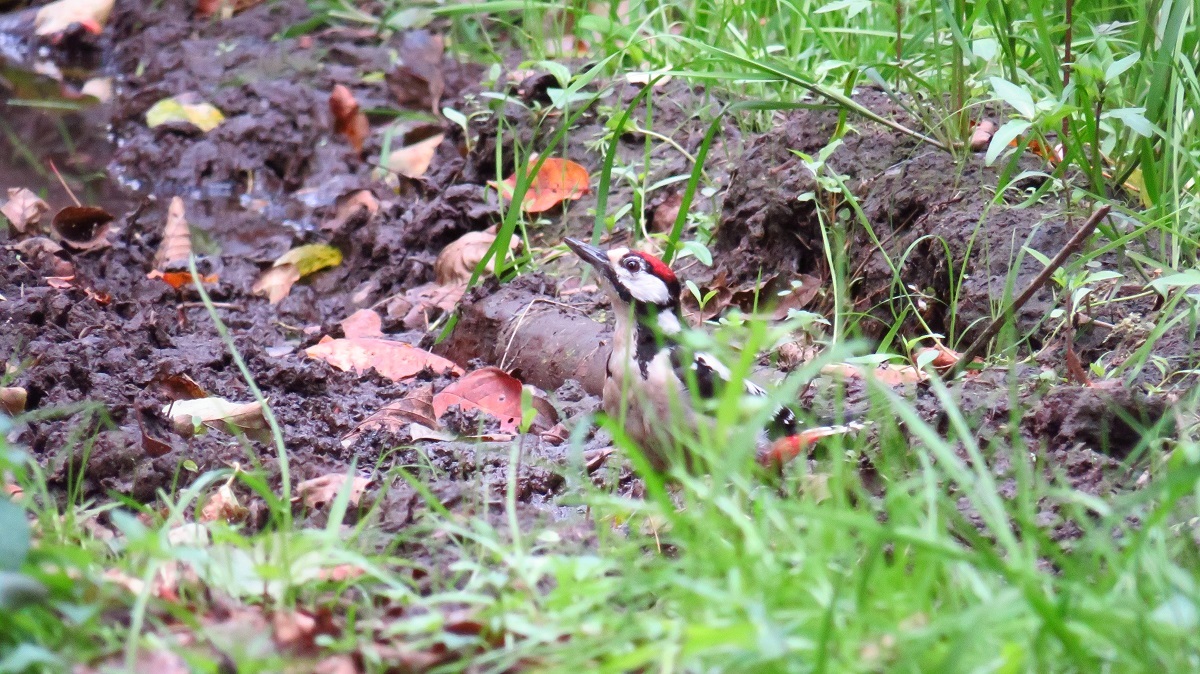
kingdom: Animalia
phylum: Chordata
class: Aves
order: Piciformes
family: Picidae
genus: Dendrocopos
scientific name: Dendrocopos major
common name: Great spotted woodpecker
